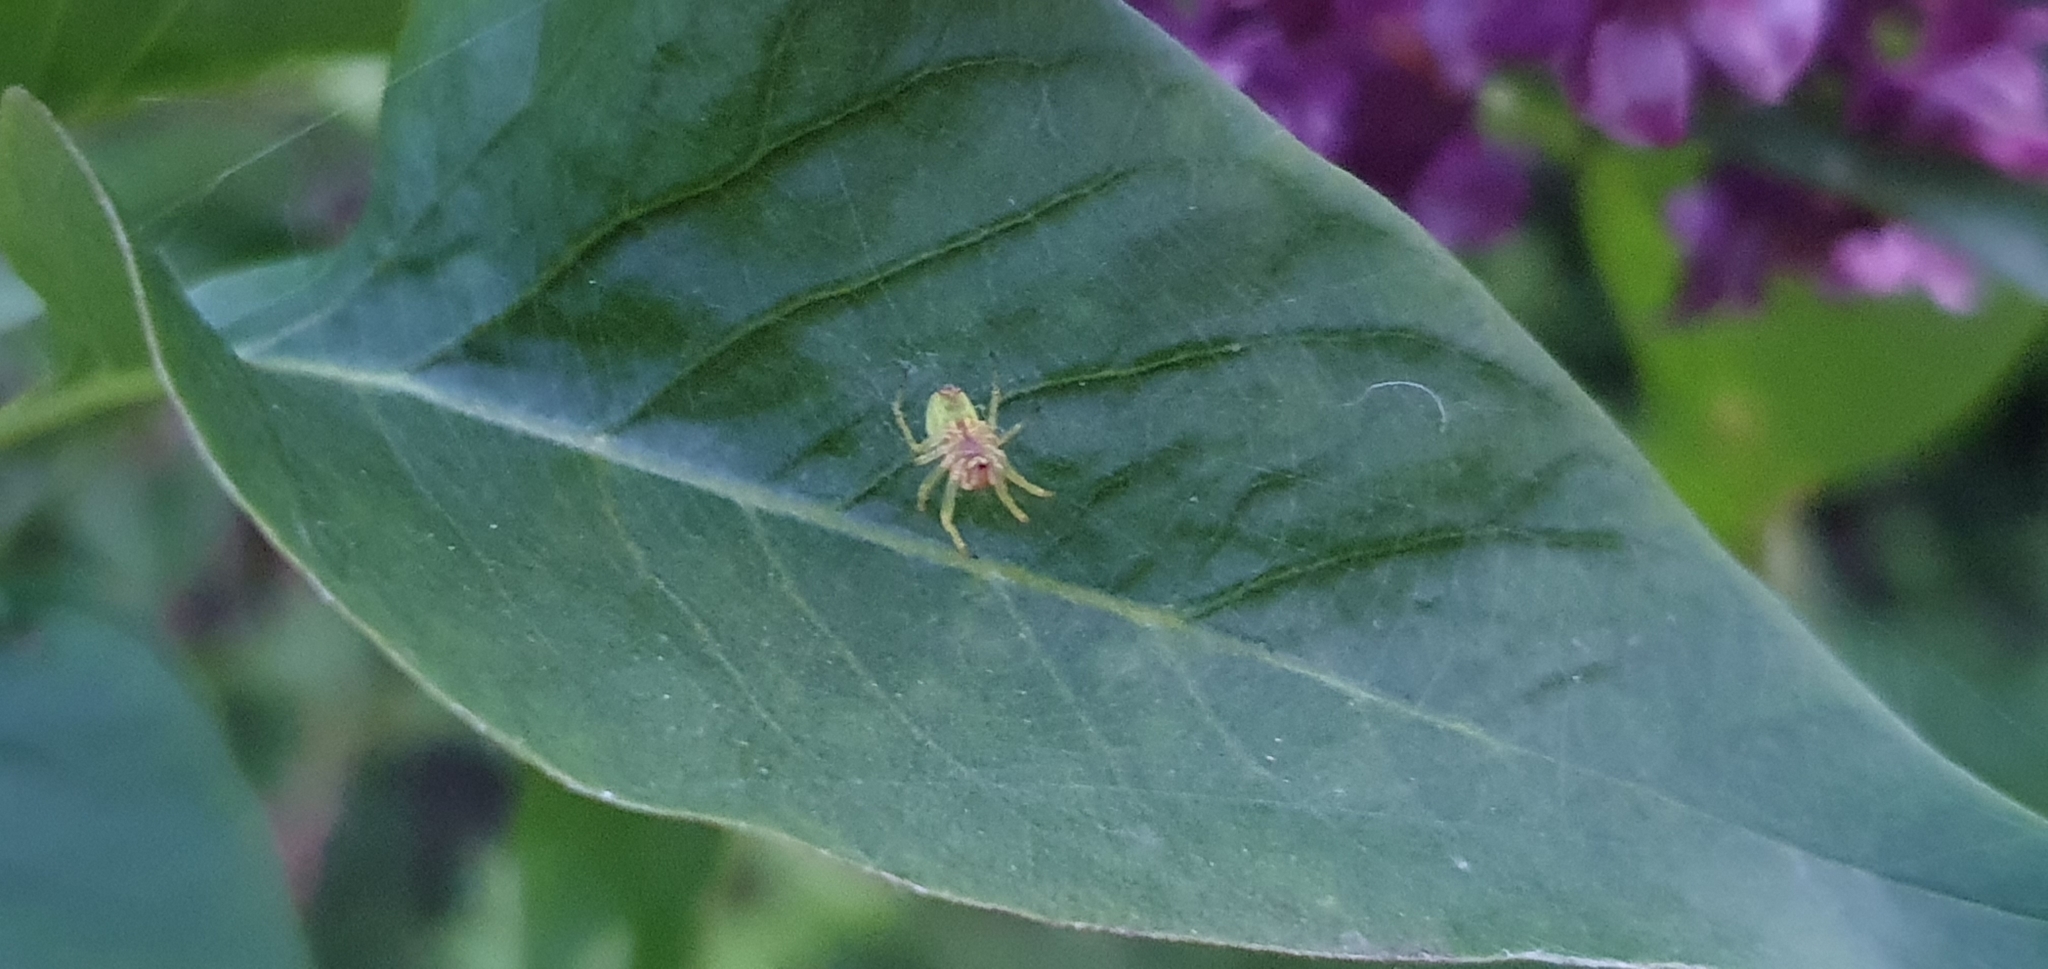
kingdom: Animalia
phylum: Arthropoda
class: Arachnida
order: Araneae
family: Araneidae
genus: Araniella
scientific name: Araniella
